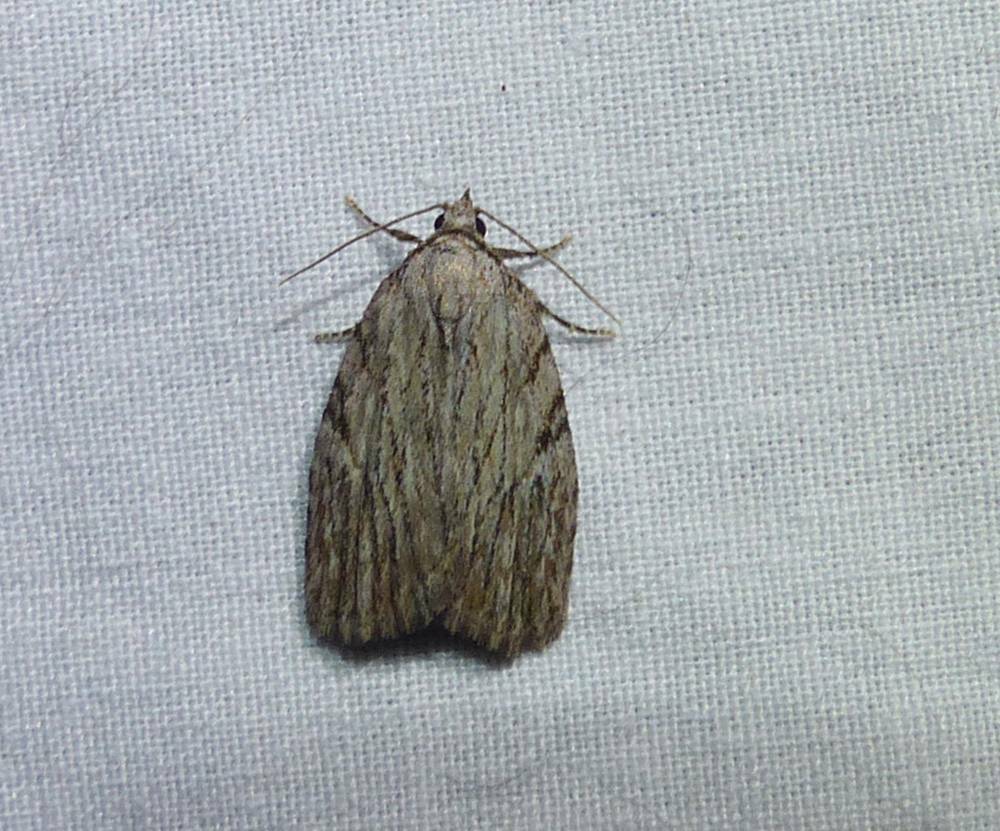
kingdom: Animalia
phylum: Arthropoda
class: Insecta
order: Lepidoptera
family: Noctuidae
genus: Balsa
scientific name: Balsa tristrigella
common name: Three-lined balsa moth
